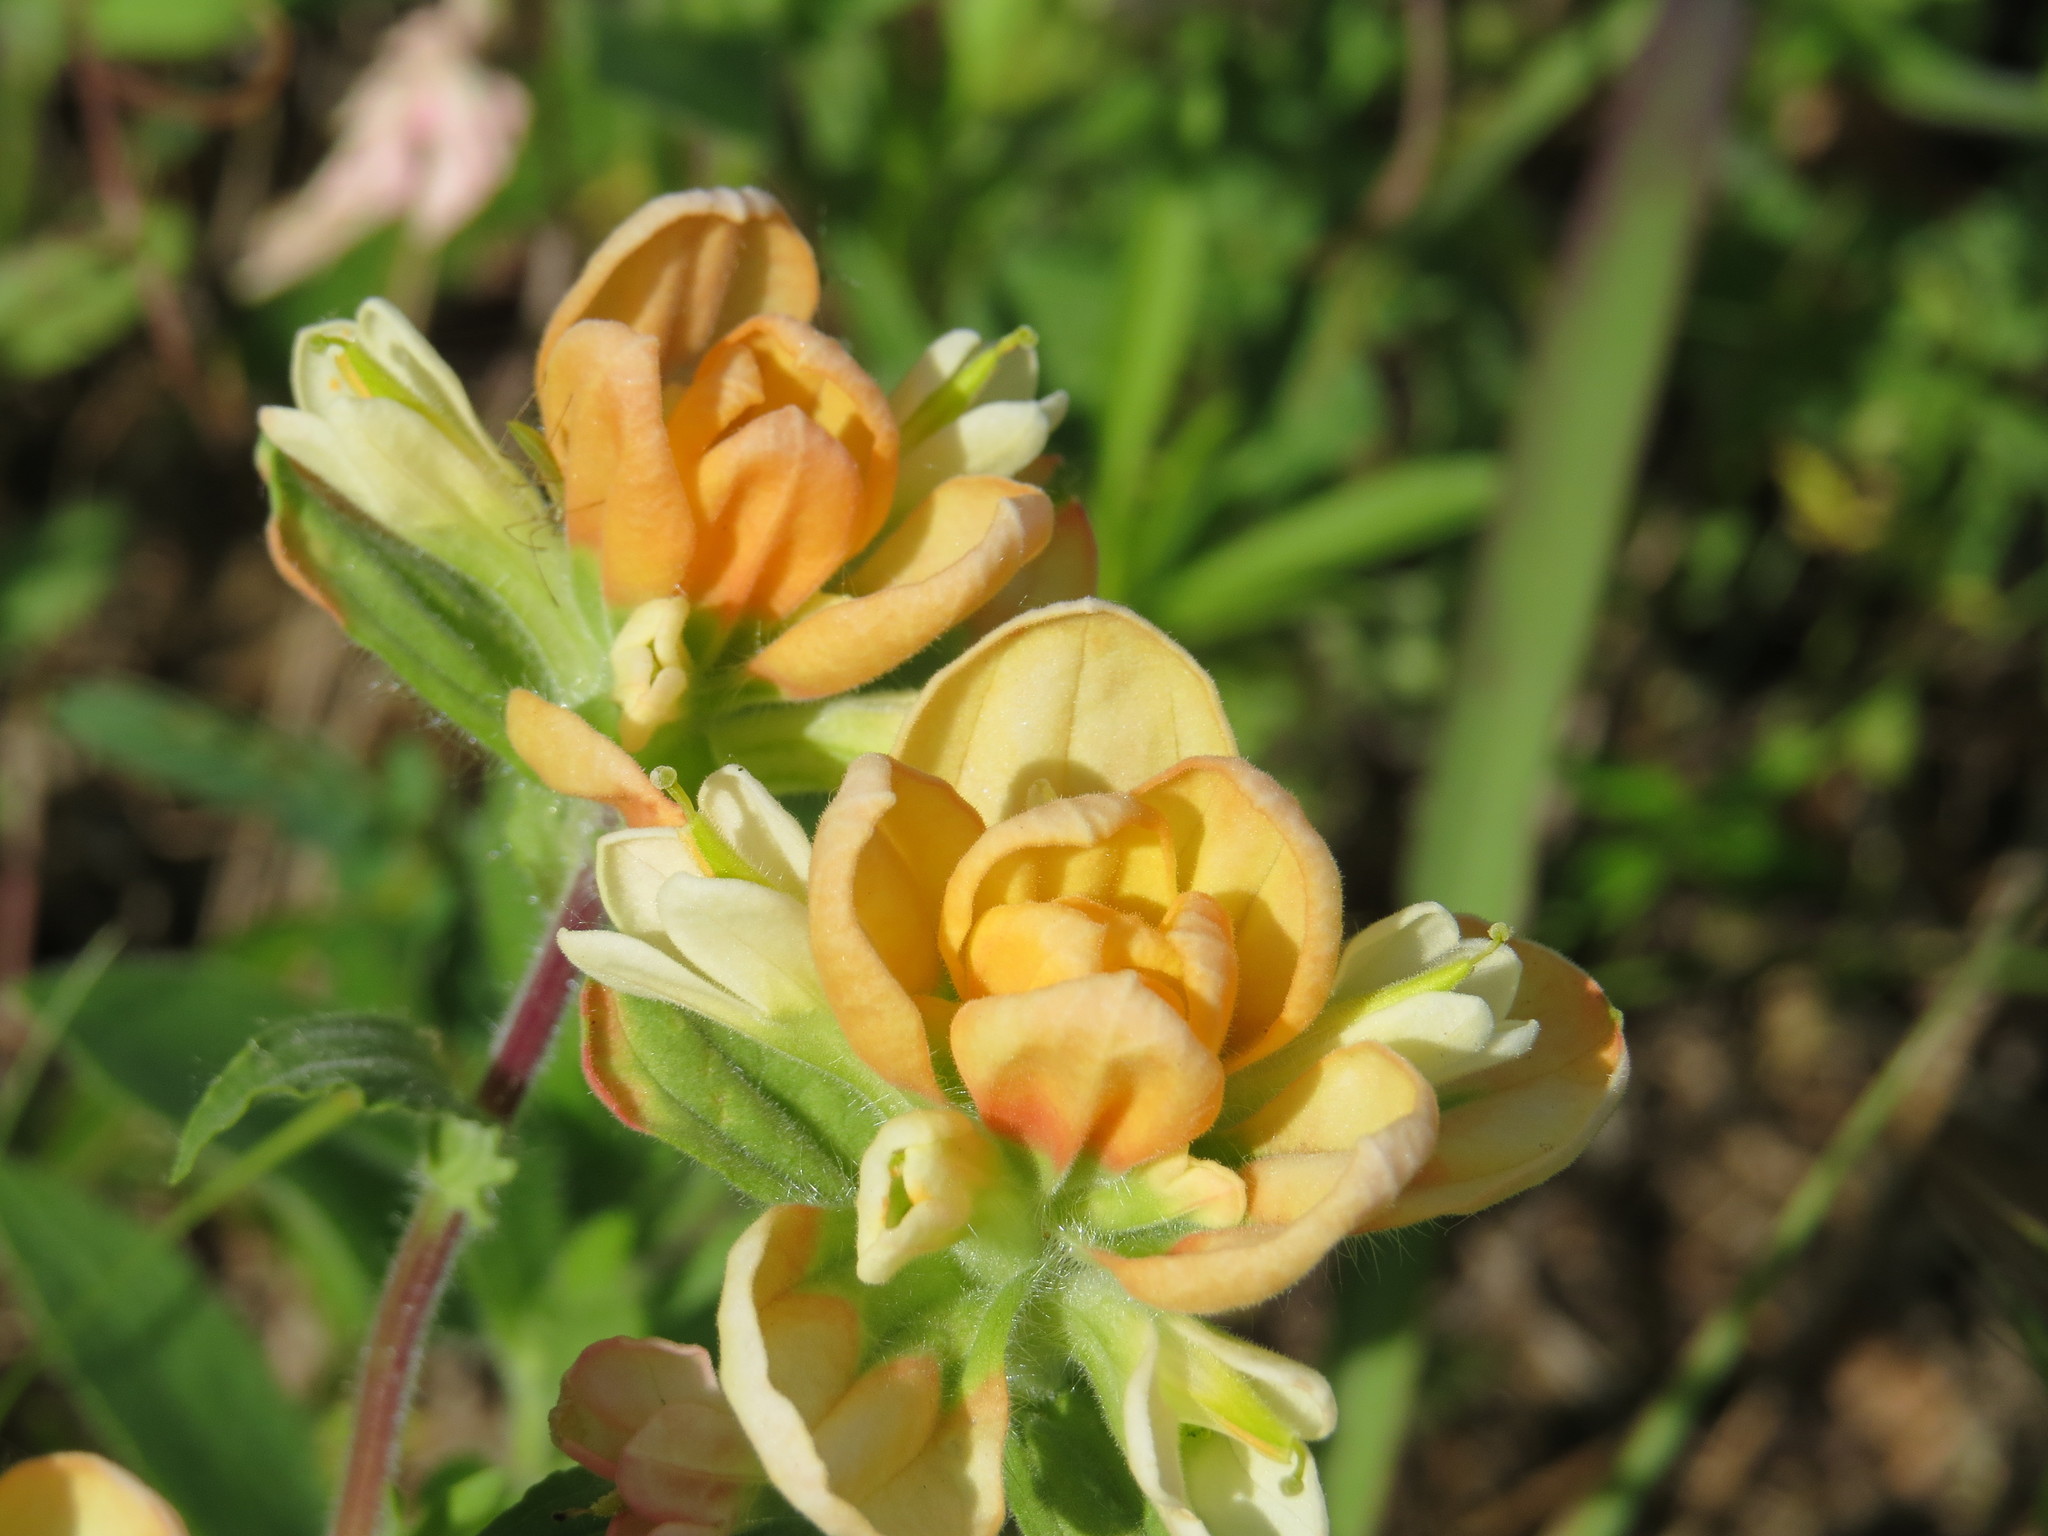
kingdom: Plantae
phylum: Tracheophyta
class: Magnoliopsida
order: Lamiales
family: Orobanchaceae
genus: Castilleja
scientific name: Castilleja indivisa
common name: Texas paintbrush
